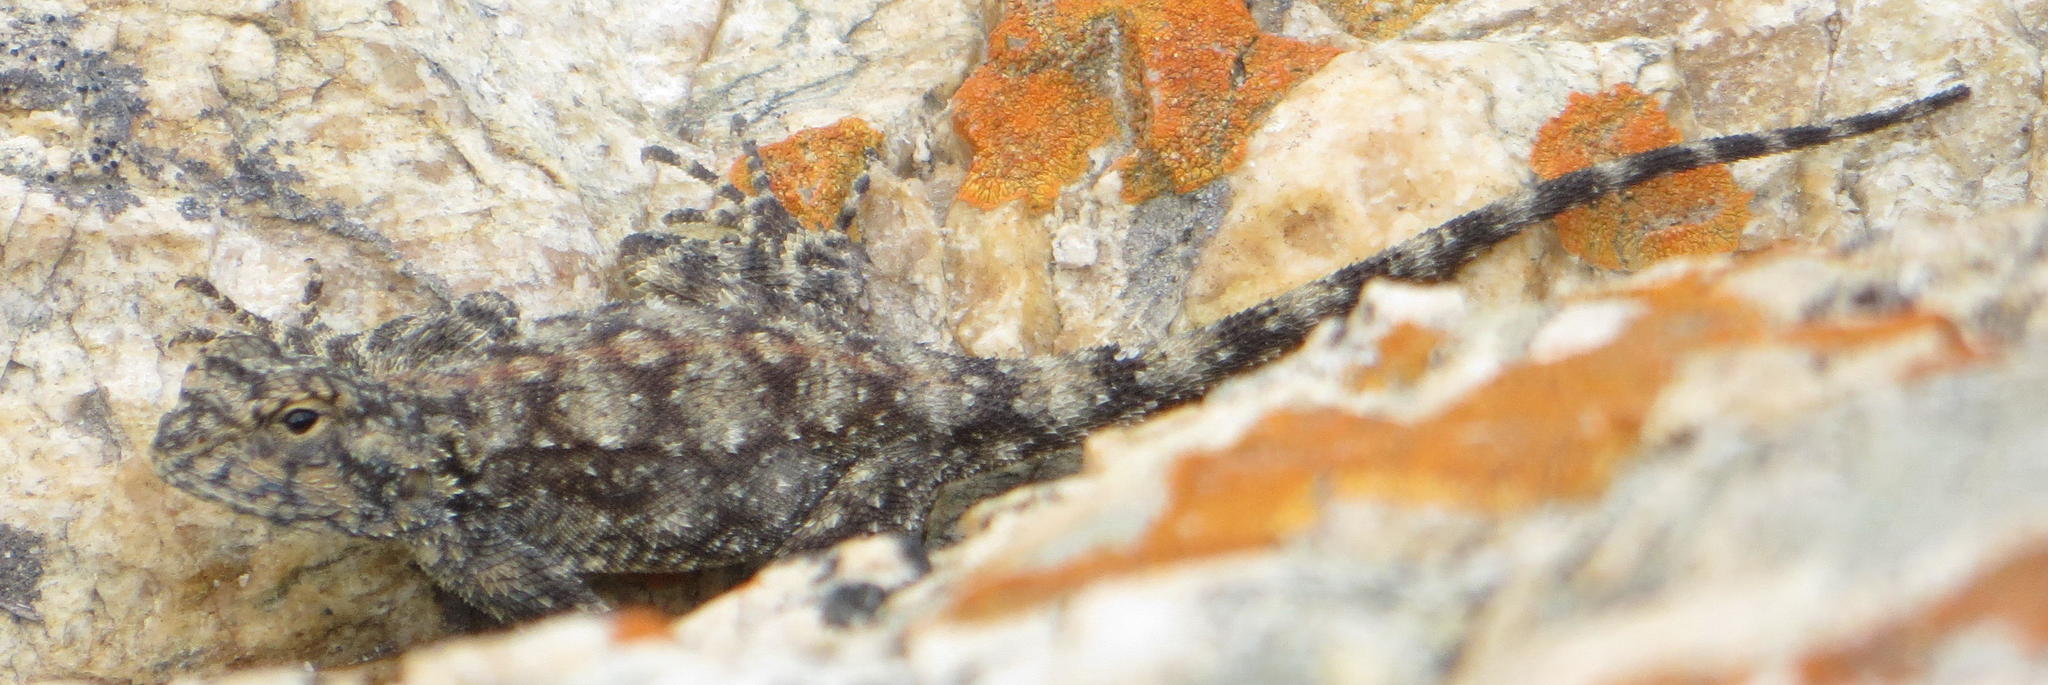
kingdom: Animalia
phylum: Chordata
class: Squamata
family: Agamidae
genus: Agama
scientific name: Agama atra
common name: Southern african rock agama
